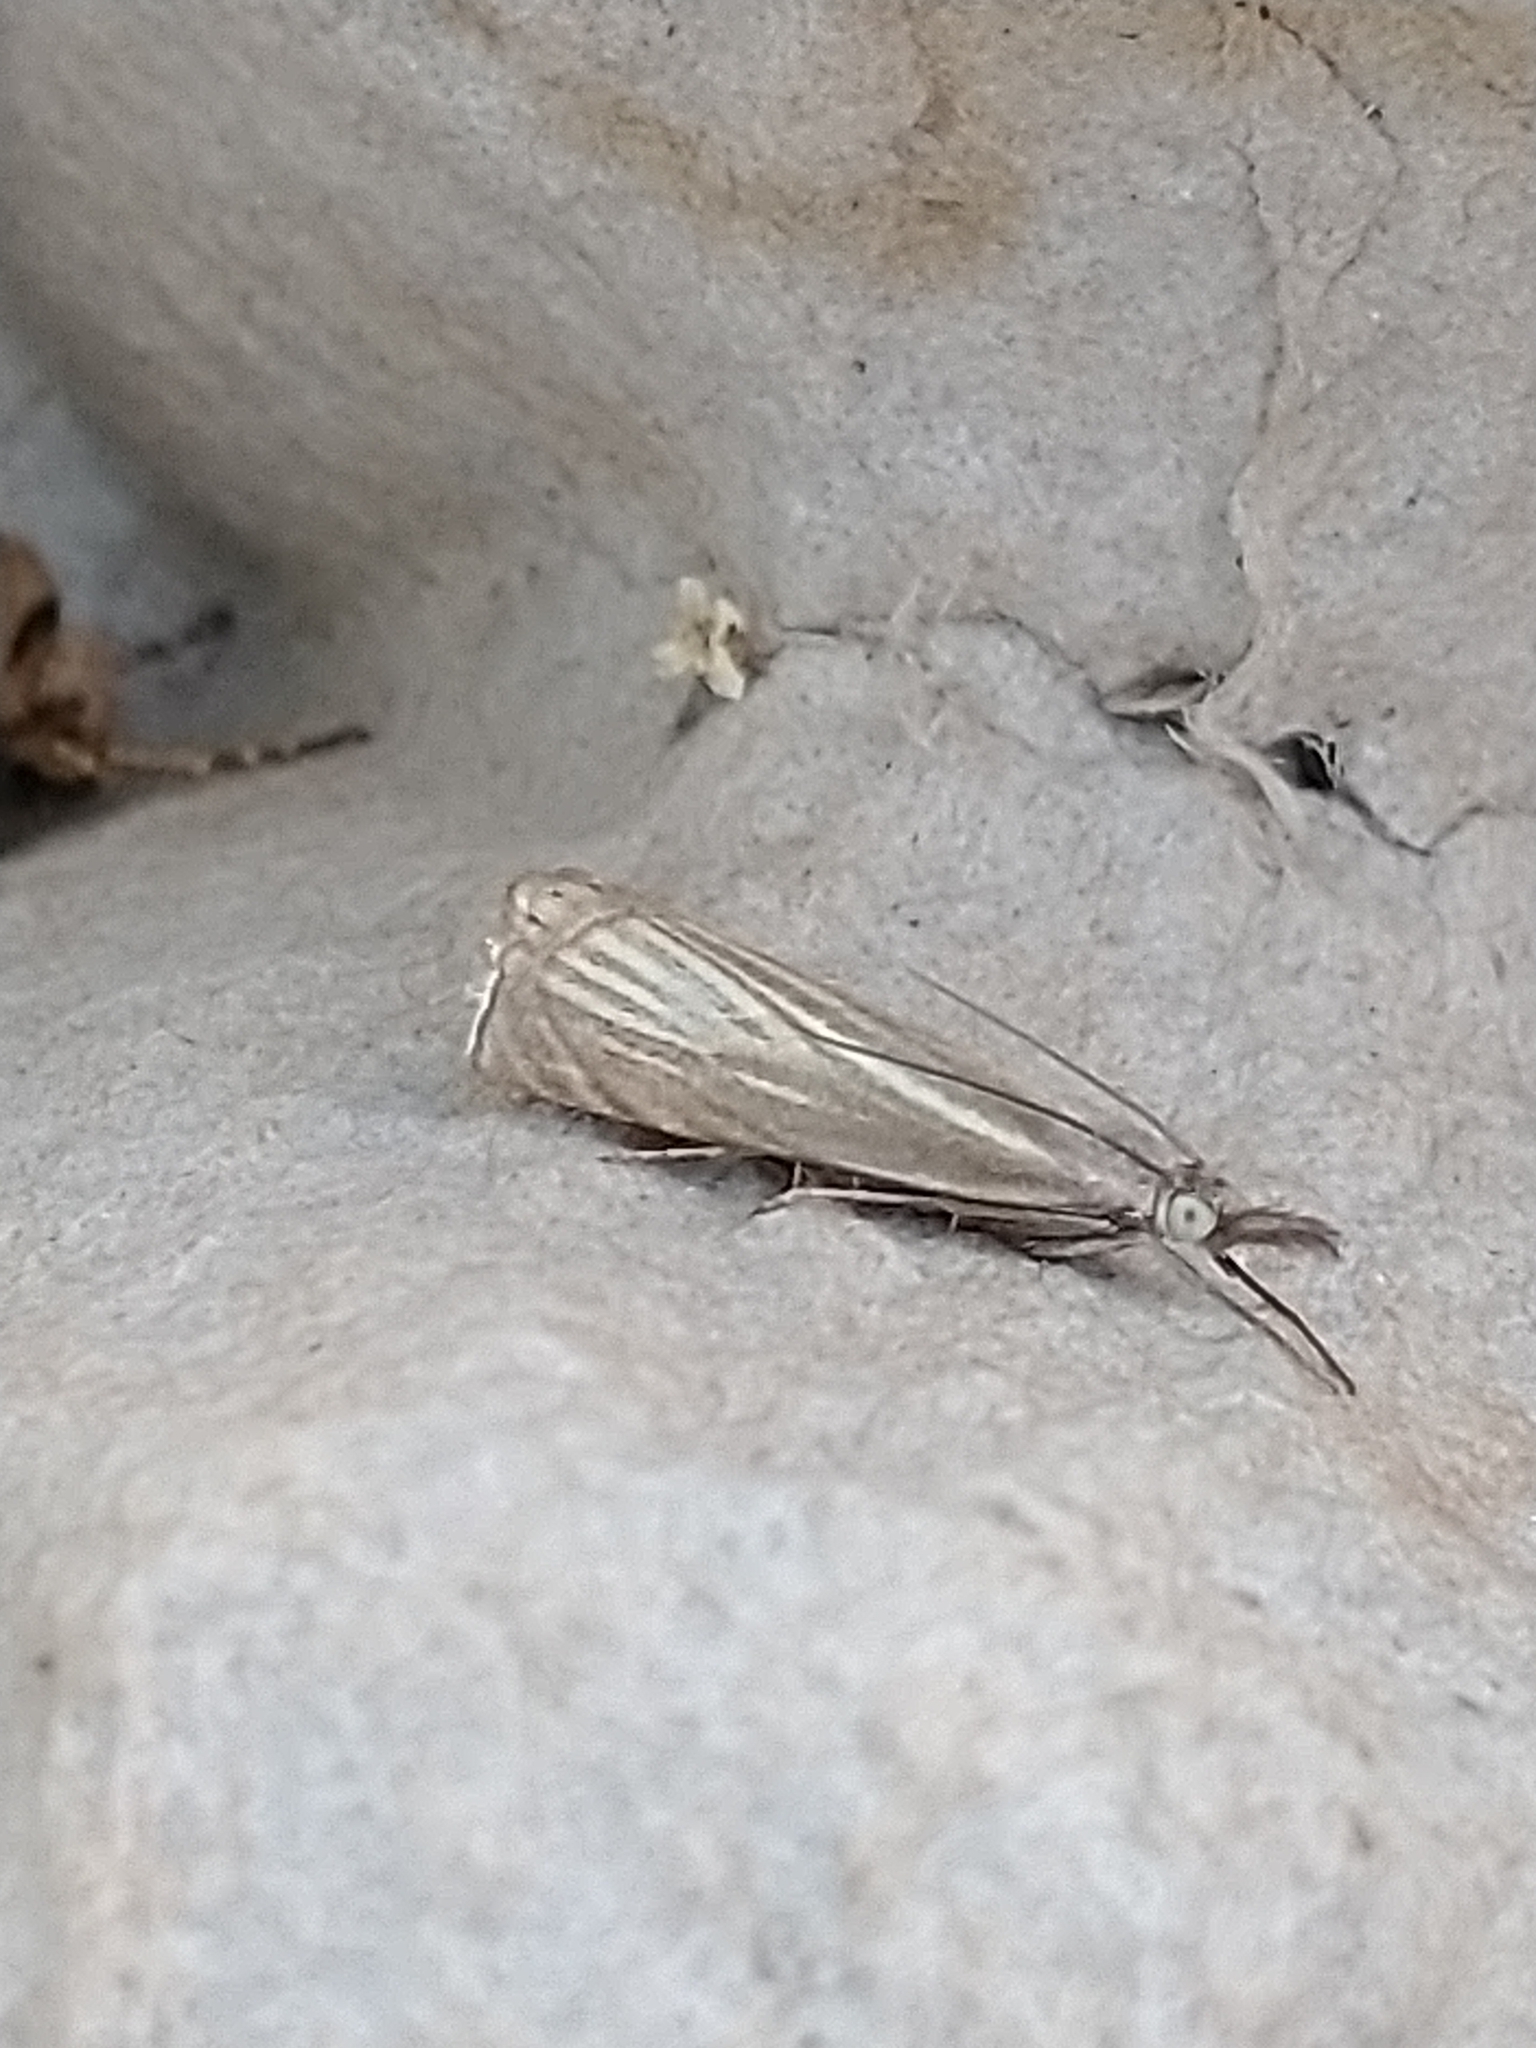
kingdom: Animalia
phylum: Arthropoda
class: Insecta
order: Lepidoptera
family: Crambidae
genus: Chrysoteuchia
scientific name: Chrysoteuchia culmella
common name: Garden grass-veneer
